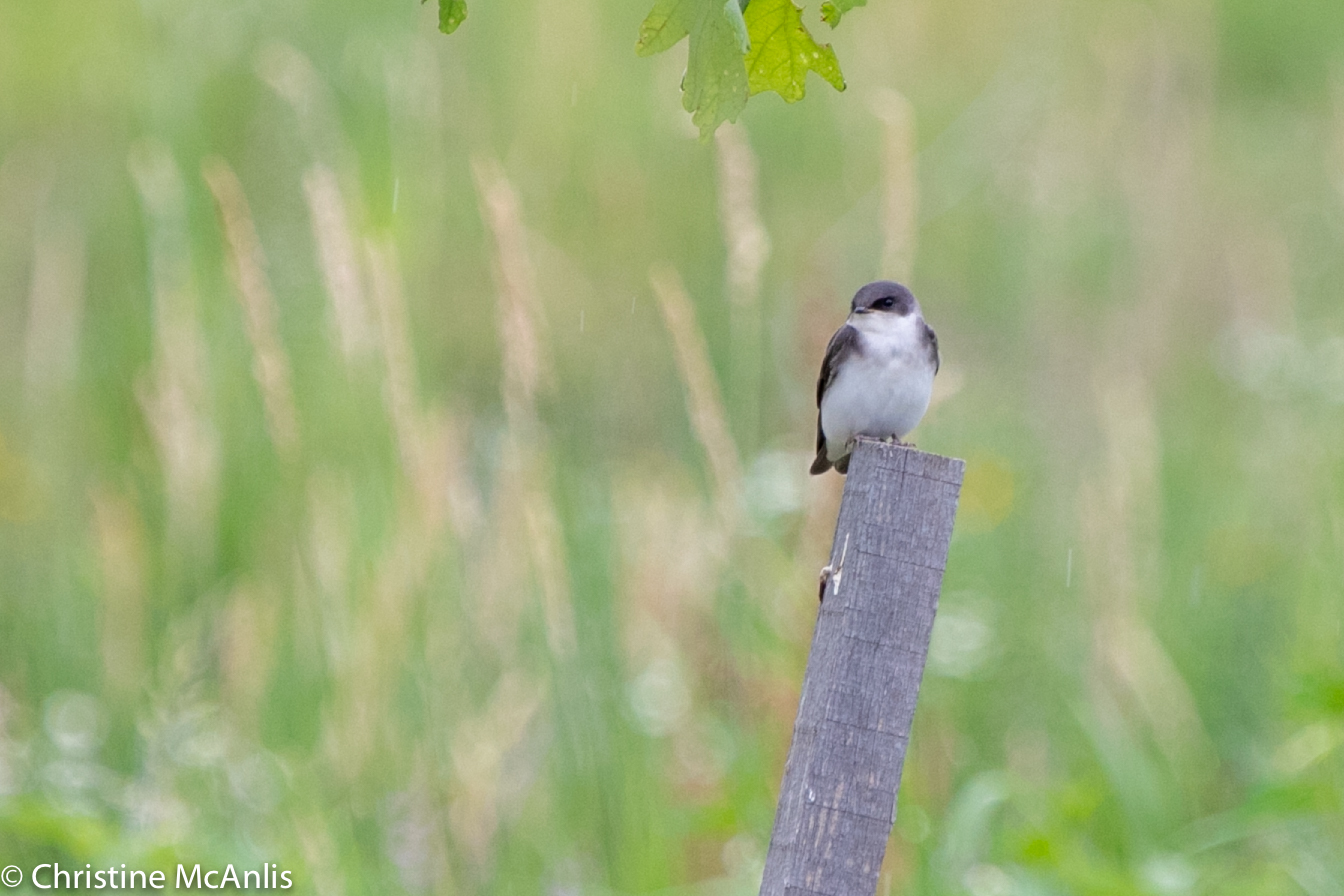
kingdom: Animalia
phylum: Chordata
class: Aves
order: Passeriformes
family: Hirundinidae
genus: Tachycineta
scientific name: Tachycineta bicolor
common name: Tree swallow
